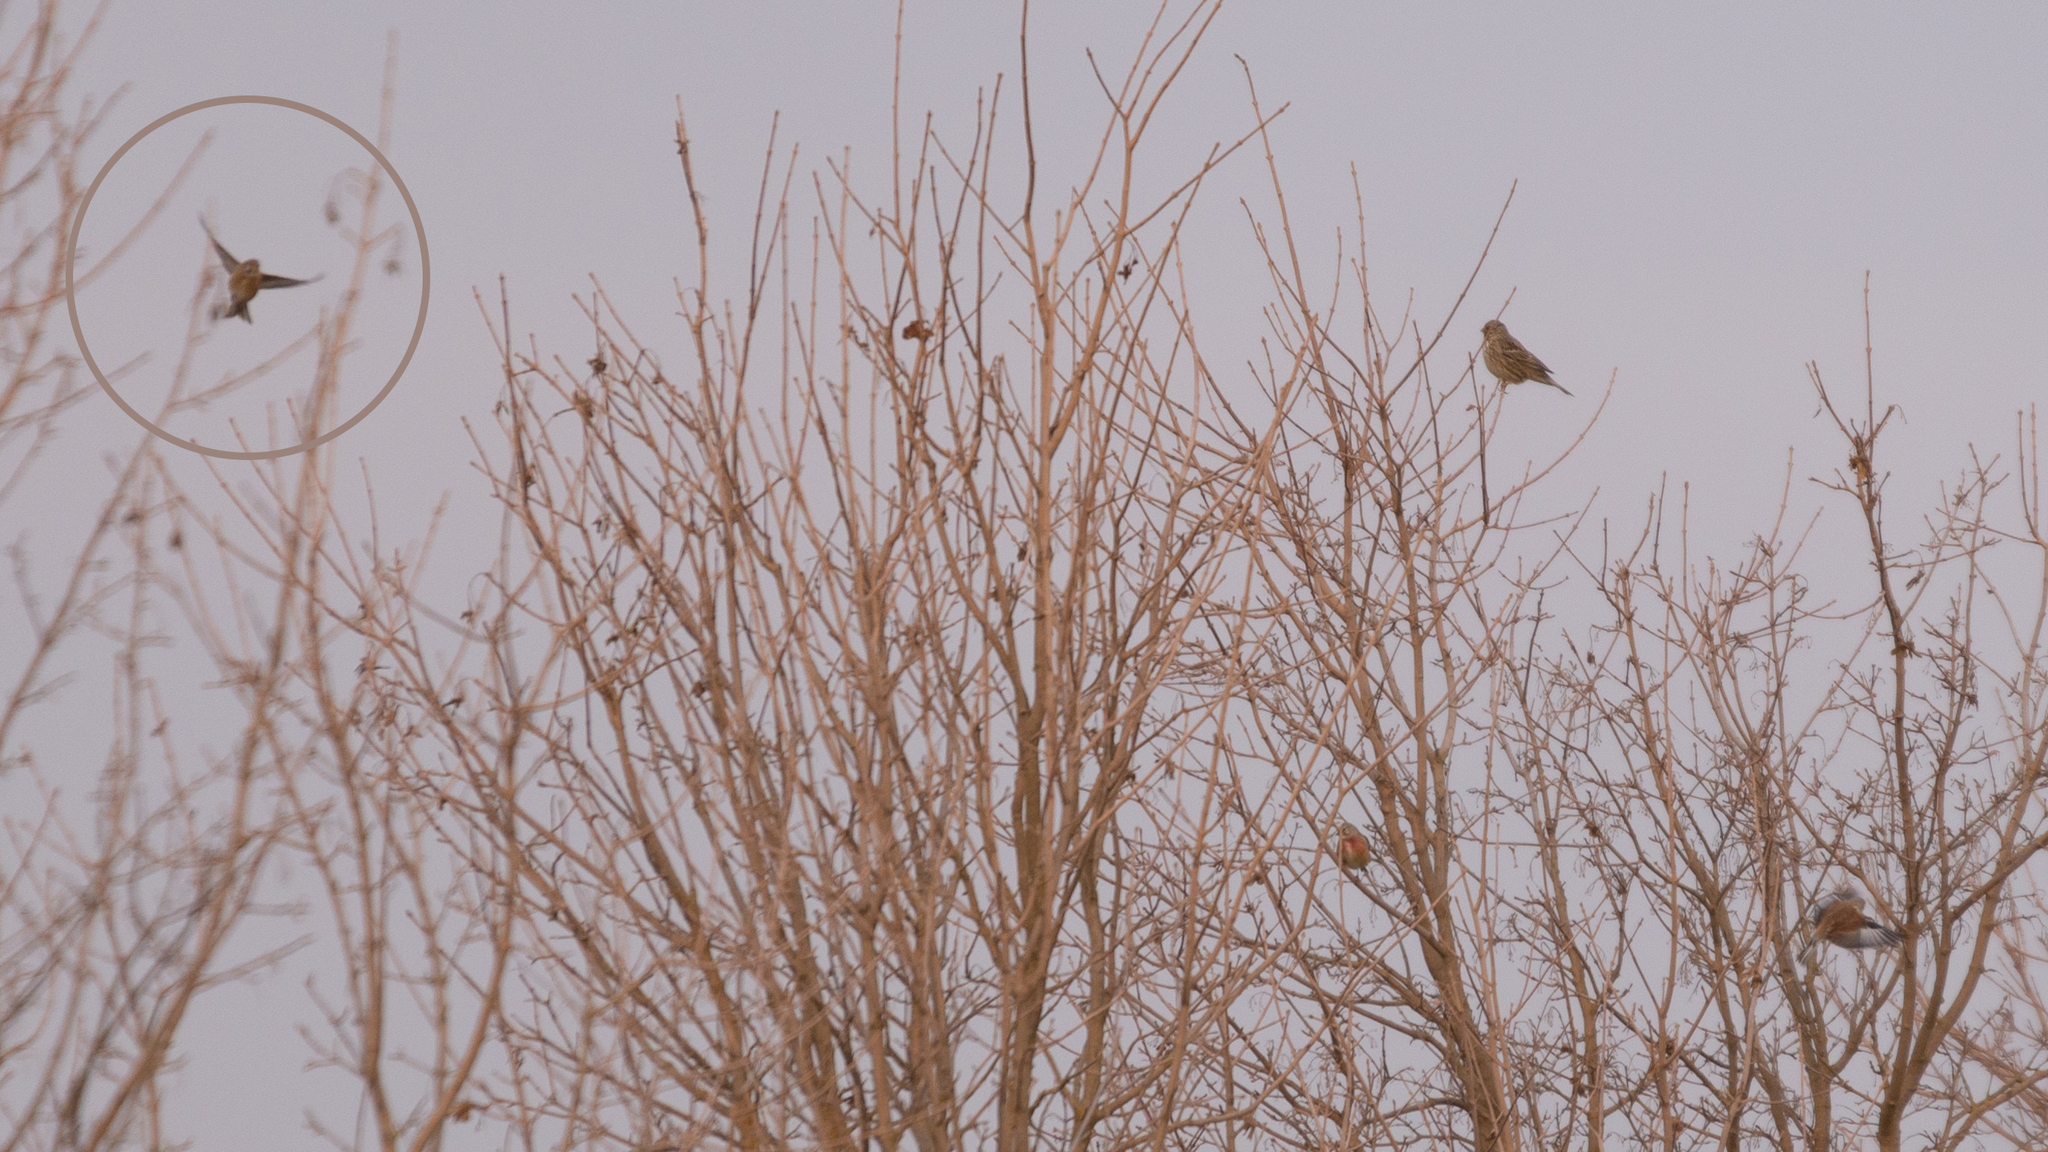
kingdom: Animalia
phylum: Chordata
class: Aves
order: Passeriformes
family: Fringillidae
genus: Linaria
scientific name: Linaria cannabina
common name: Common linnet
